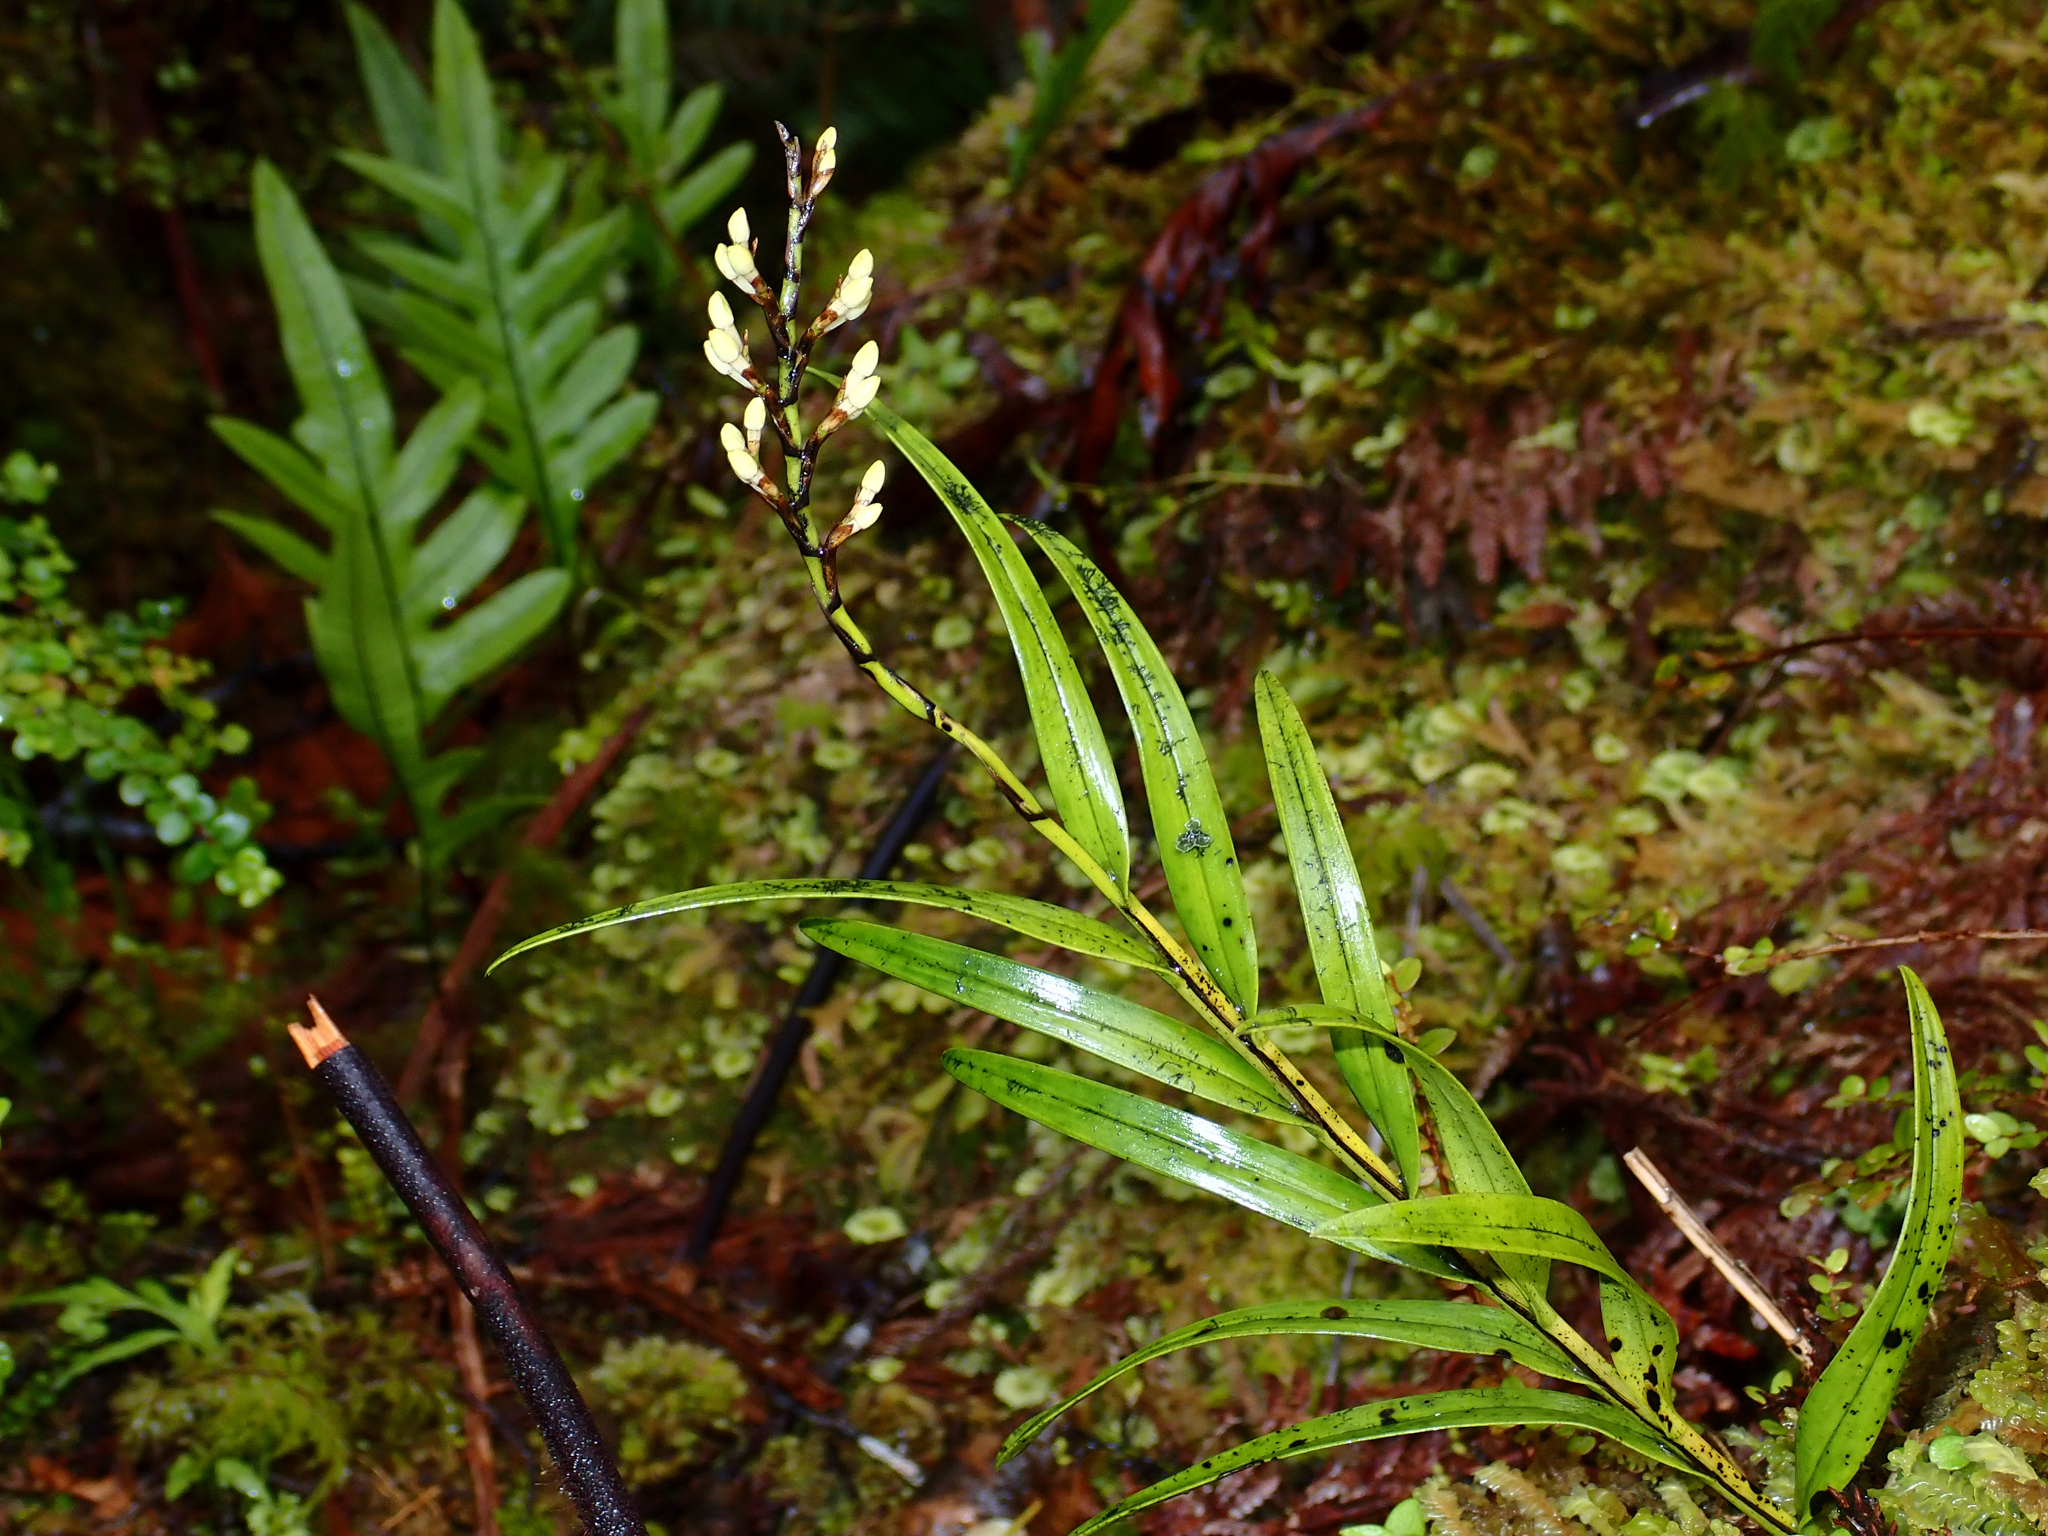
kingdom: Plantae
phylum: Tracheophyta
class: Liliopsida
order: Asparagales
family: Orchidaceae
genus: Earina
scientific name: Earina autumnalis
